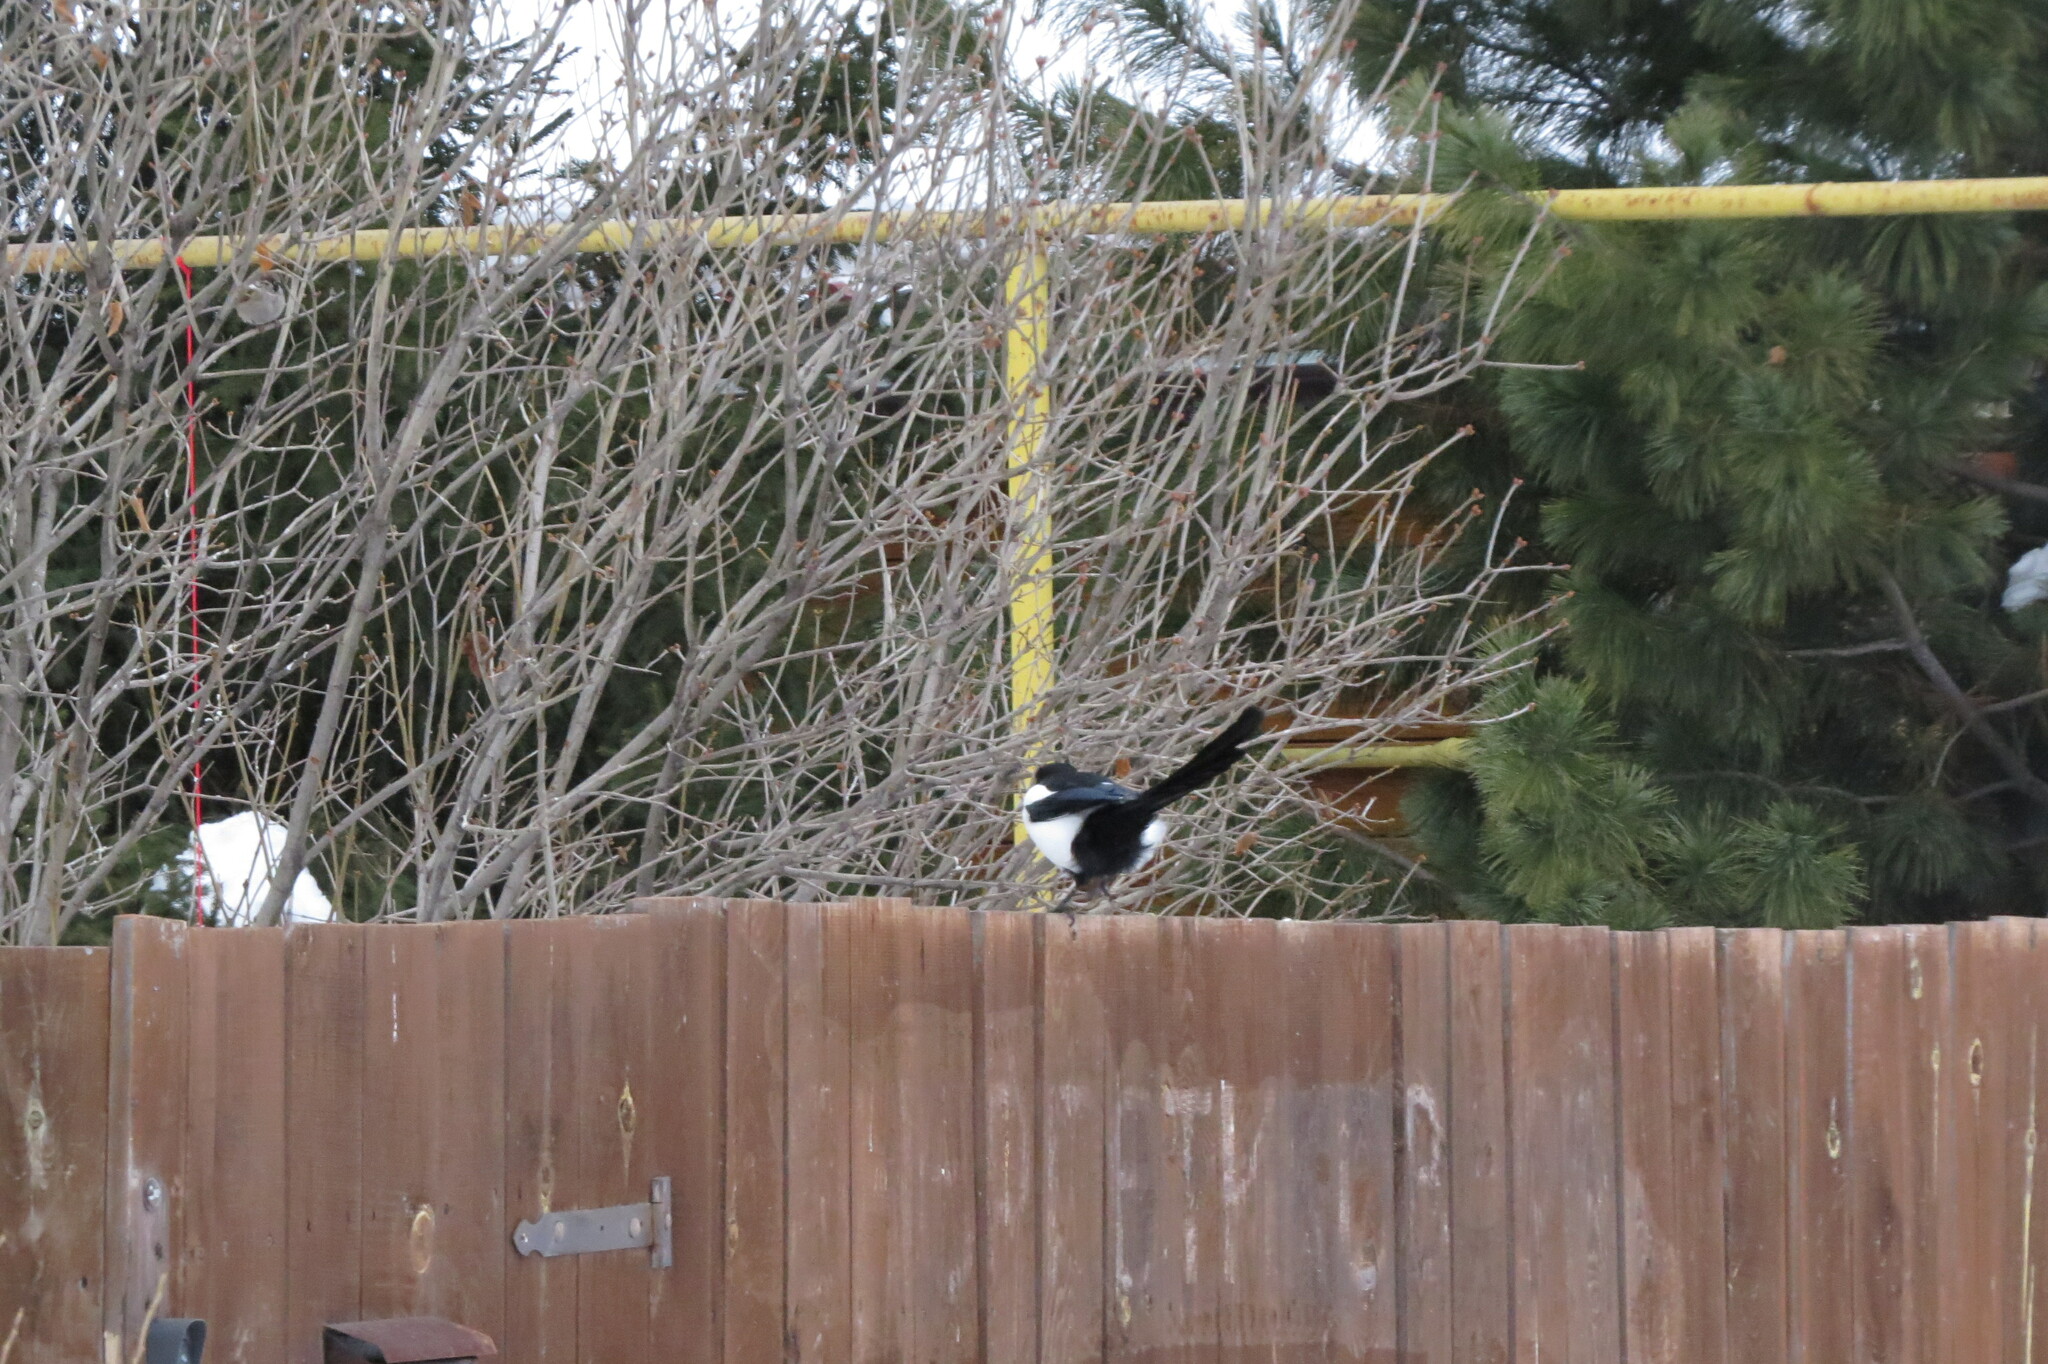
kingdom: Animalia
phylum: Chordata
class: Aves
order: Passeriformes
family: Corvidae
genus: Pica
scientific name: Pica pica
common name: Eurasian magpie
